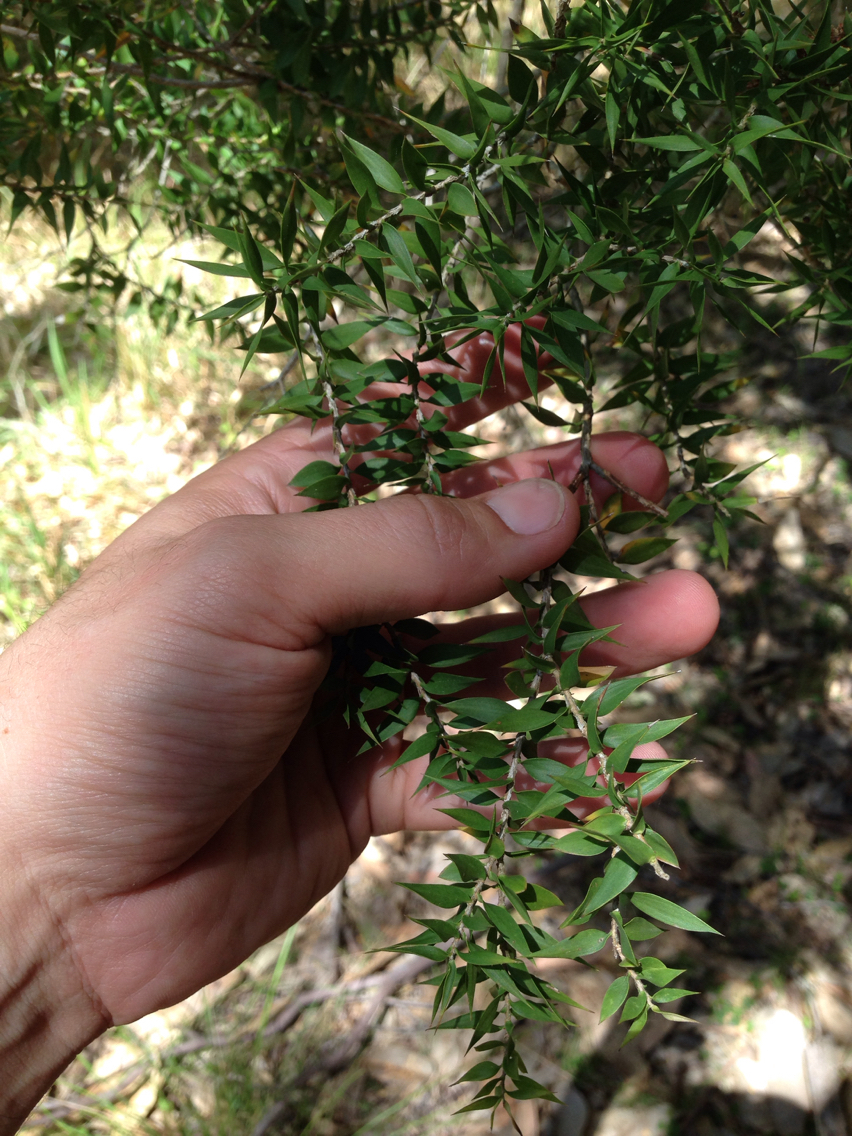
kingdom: Plantae
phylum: Tracheophyta
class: Magnoliopsida
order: Myrtales
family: Myrtaceae
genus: Melaleuca
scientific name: Melaleuca styphelioides
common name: Prickly paperbark
